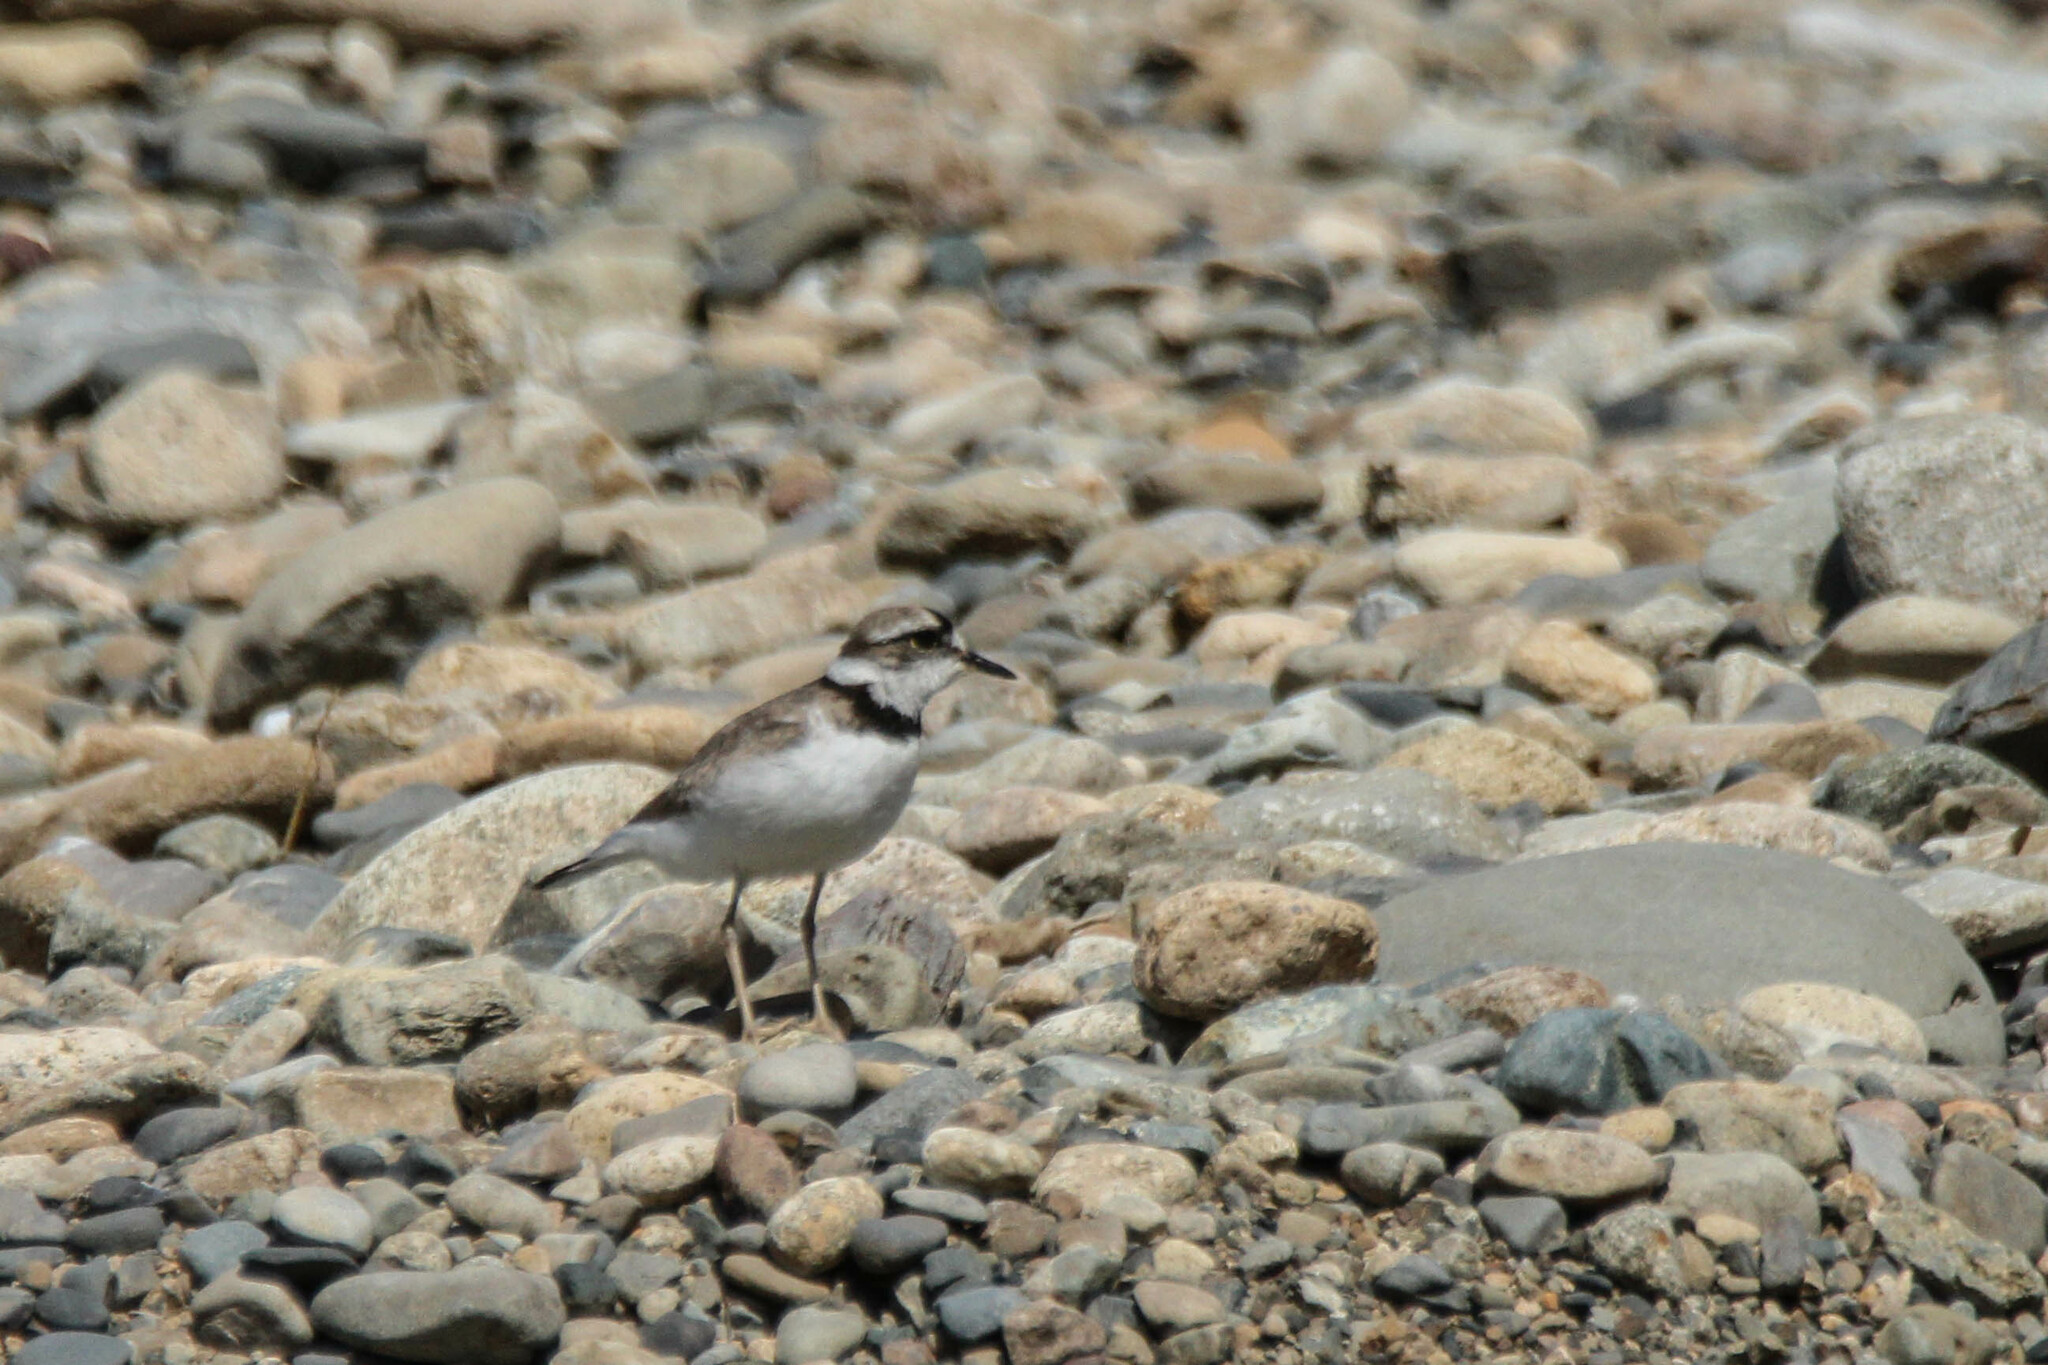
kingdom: Animalia
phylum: Chordata
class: Aves
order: Charadriiformes
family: Charadriidae
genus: Charadrius
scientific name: Charadrius placidus
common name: Long-billed plover
